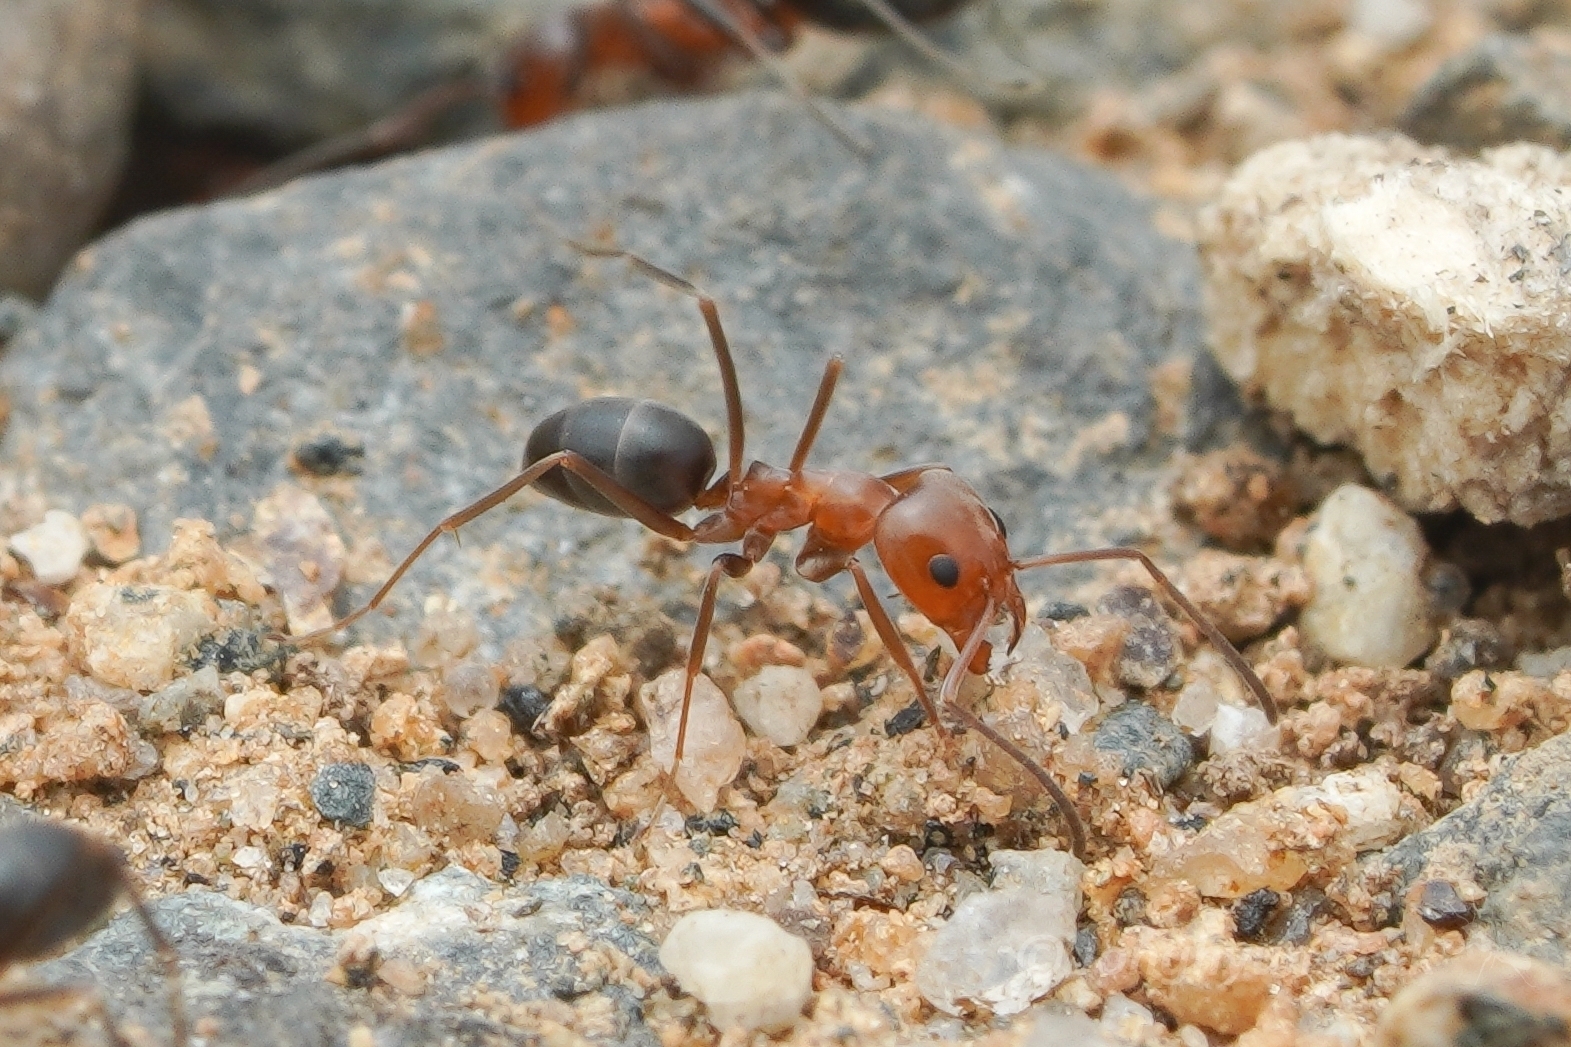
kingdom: Animalia
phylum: Arthropoda
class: Insecta
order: Hymenoptera
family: Formicidae
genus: Dorymyrmex
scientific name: Dorymyrmex bicolor
